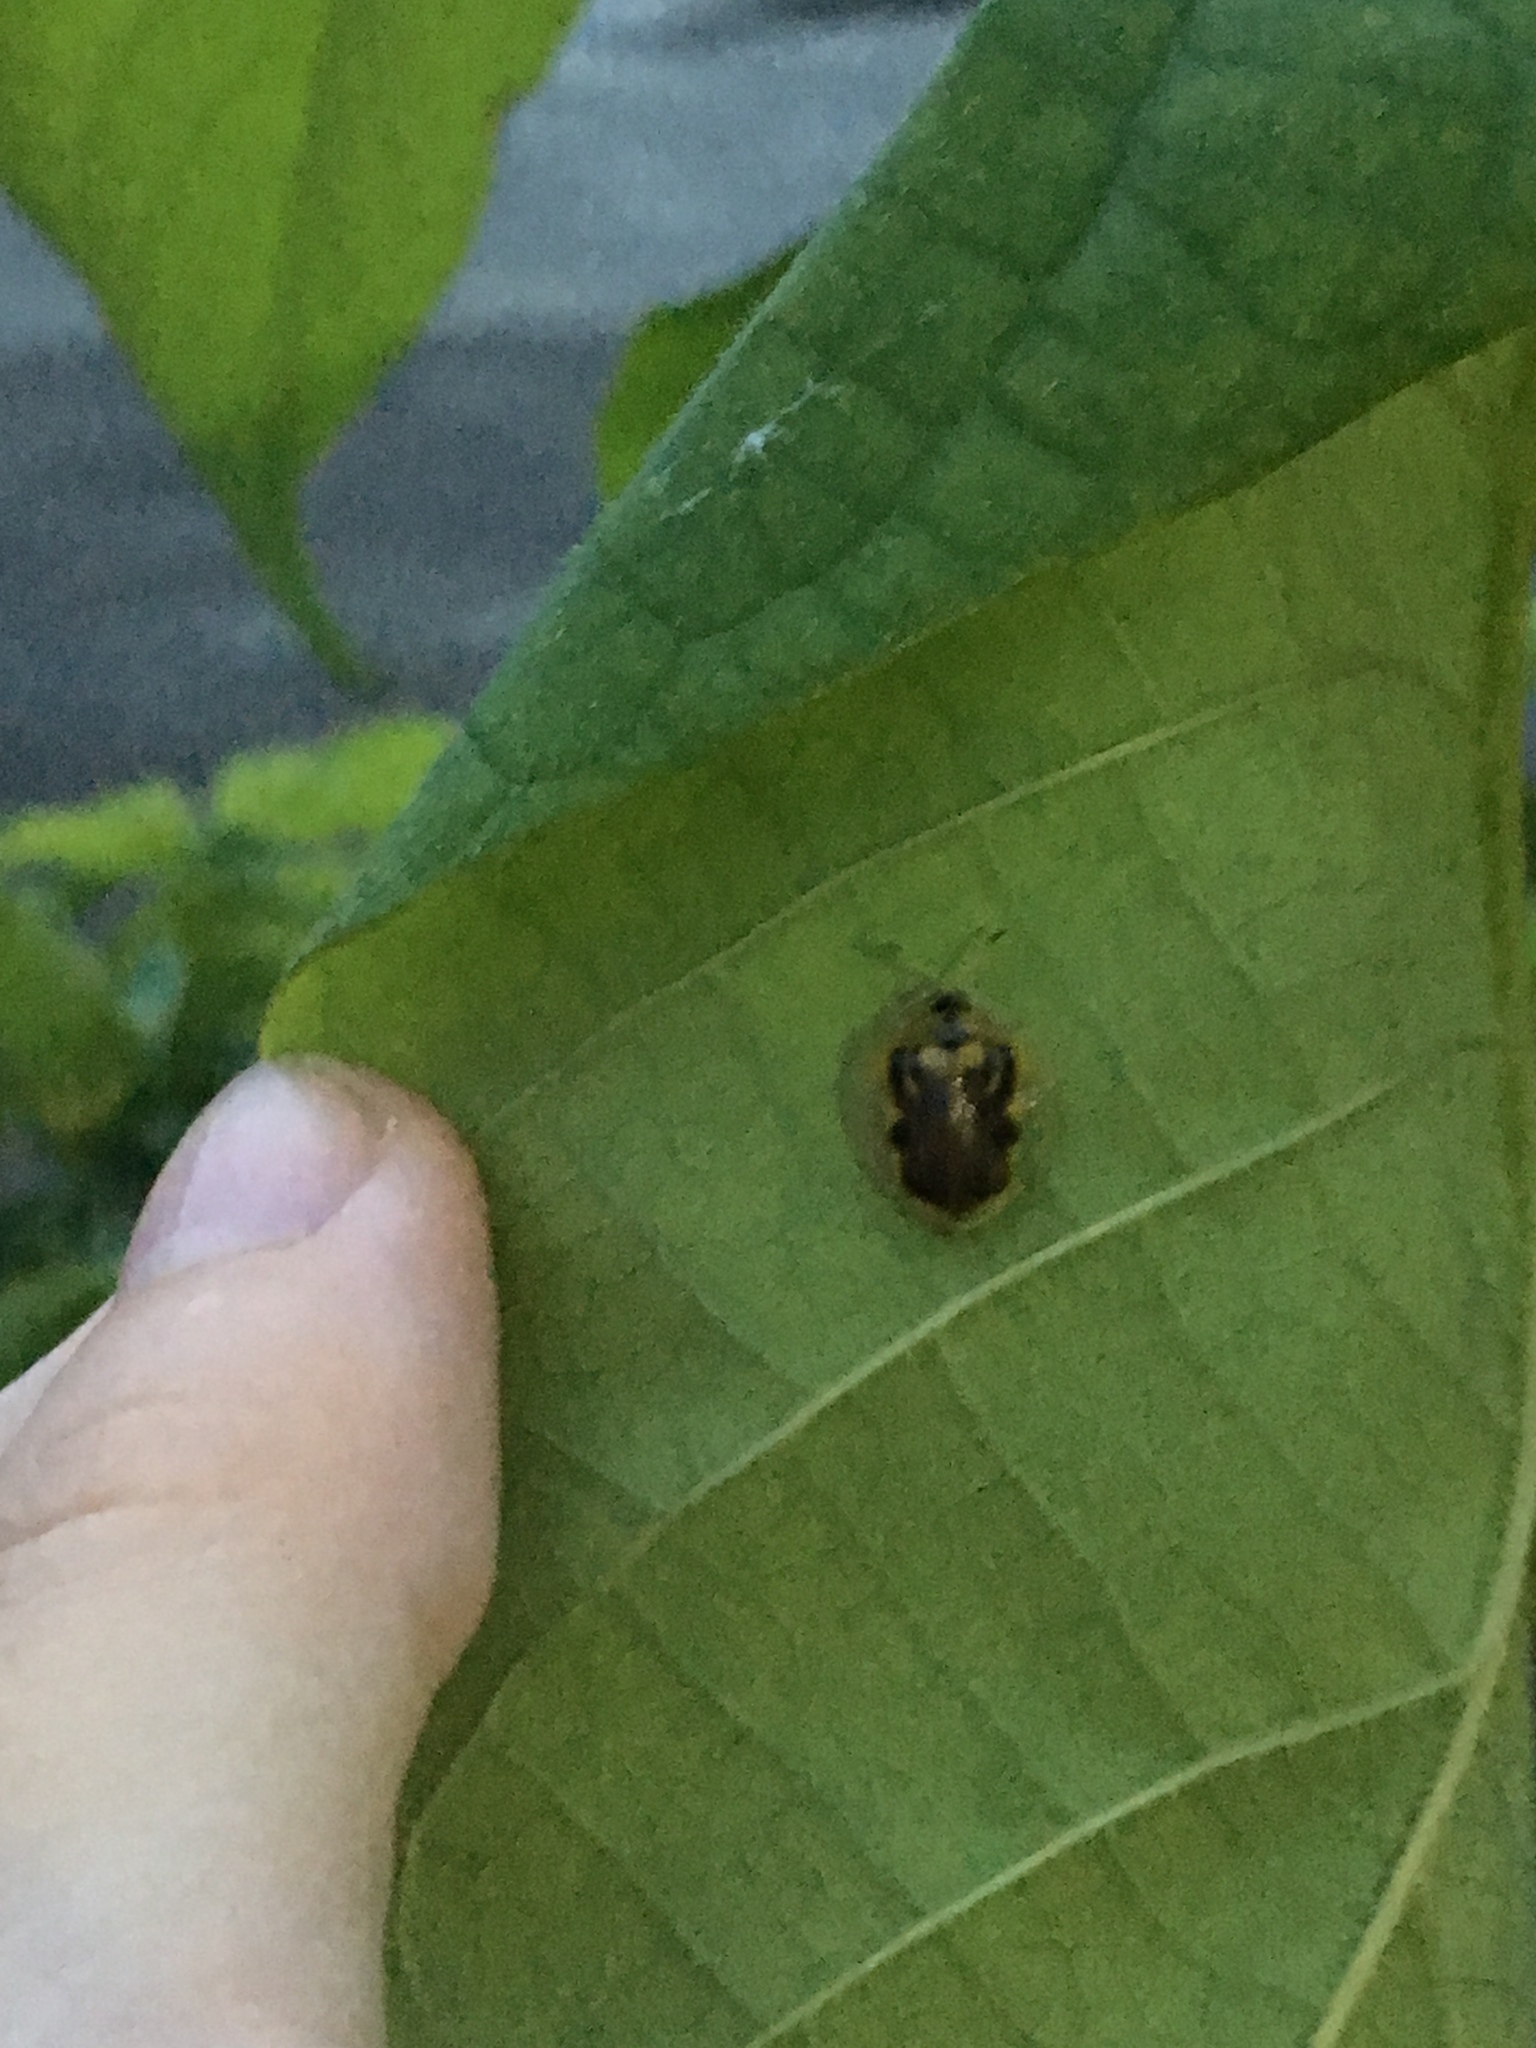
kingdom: Animalia
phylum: Arthropoda
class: Insecta
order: Coleoptera
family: Chrysomelidae
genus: Eurypepla
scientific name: Eurypepla calochroma
